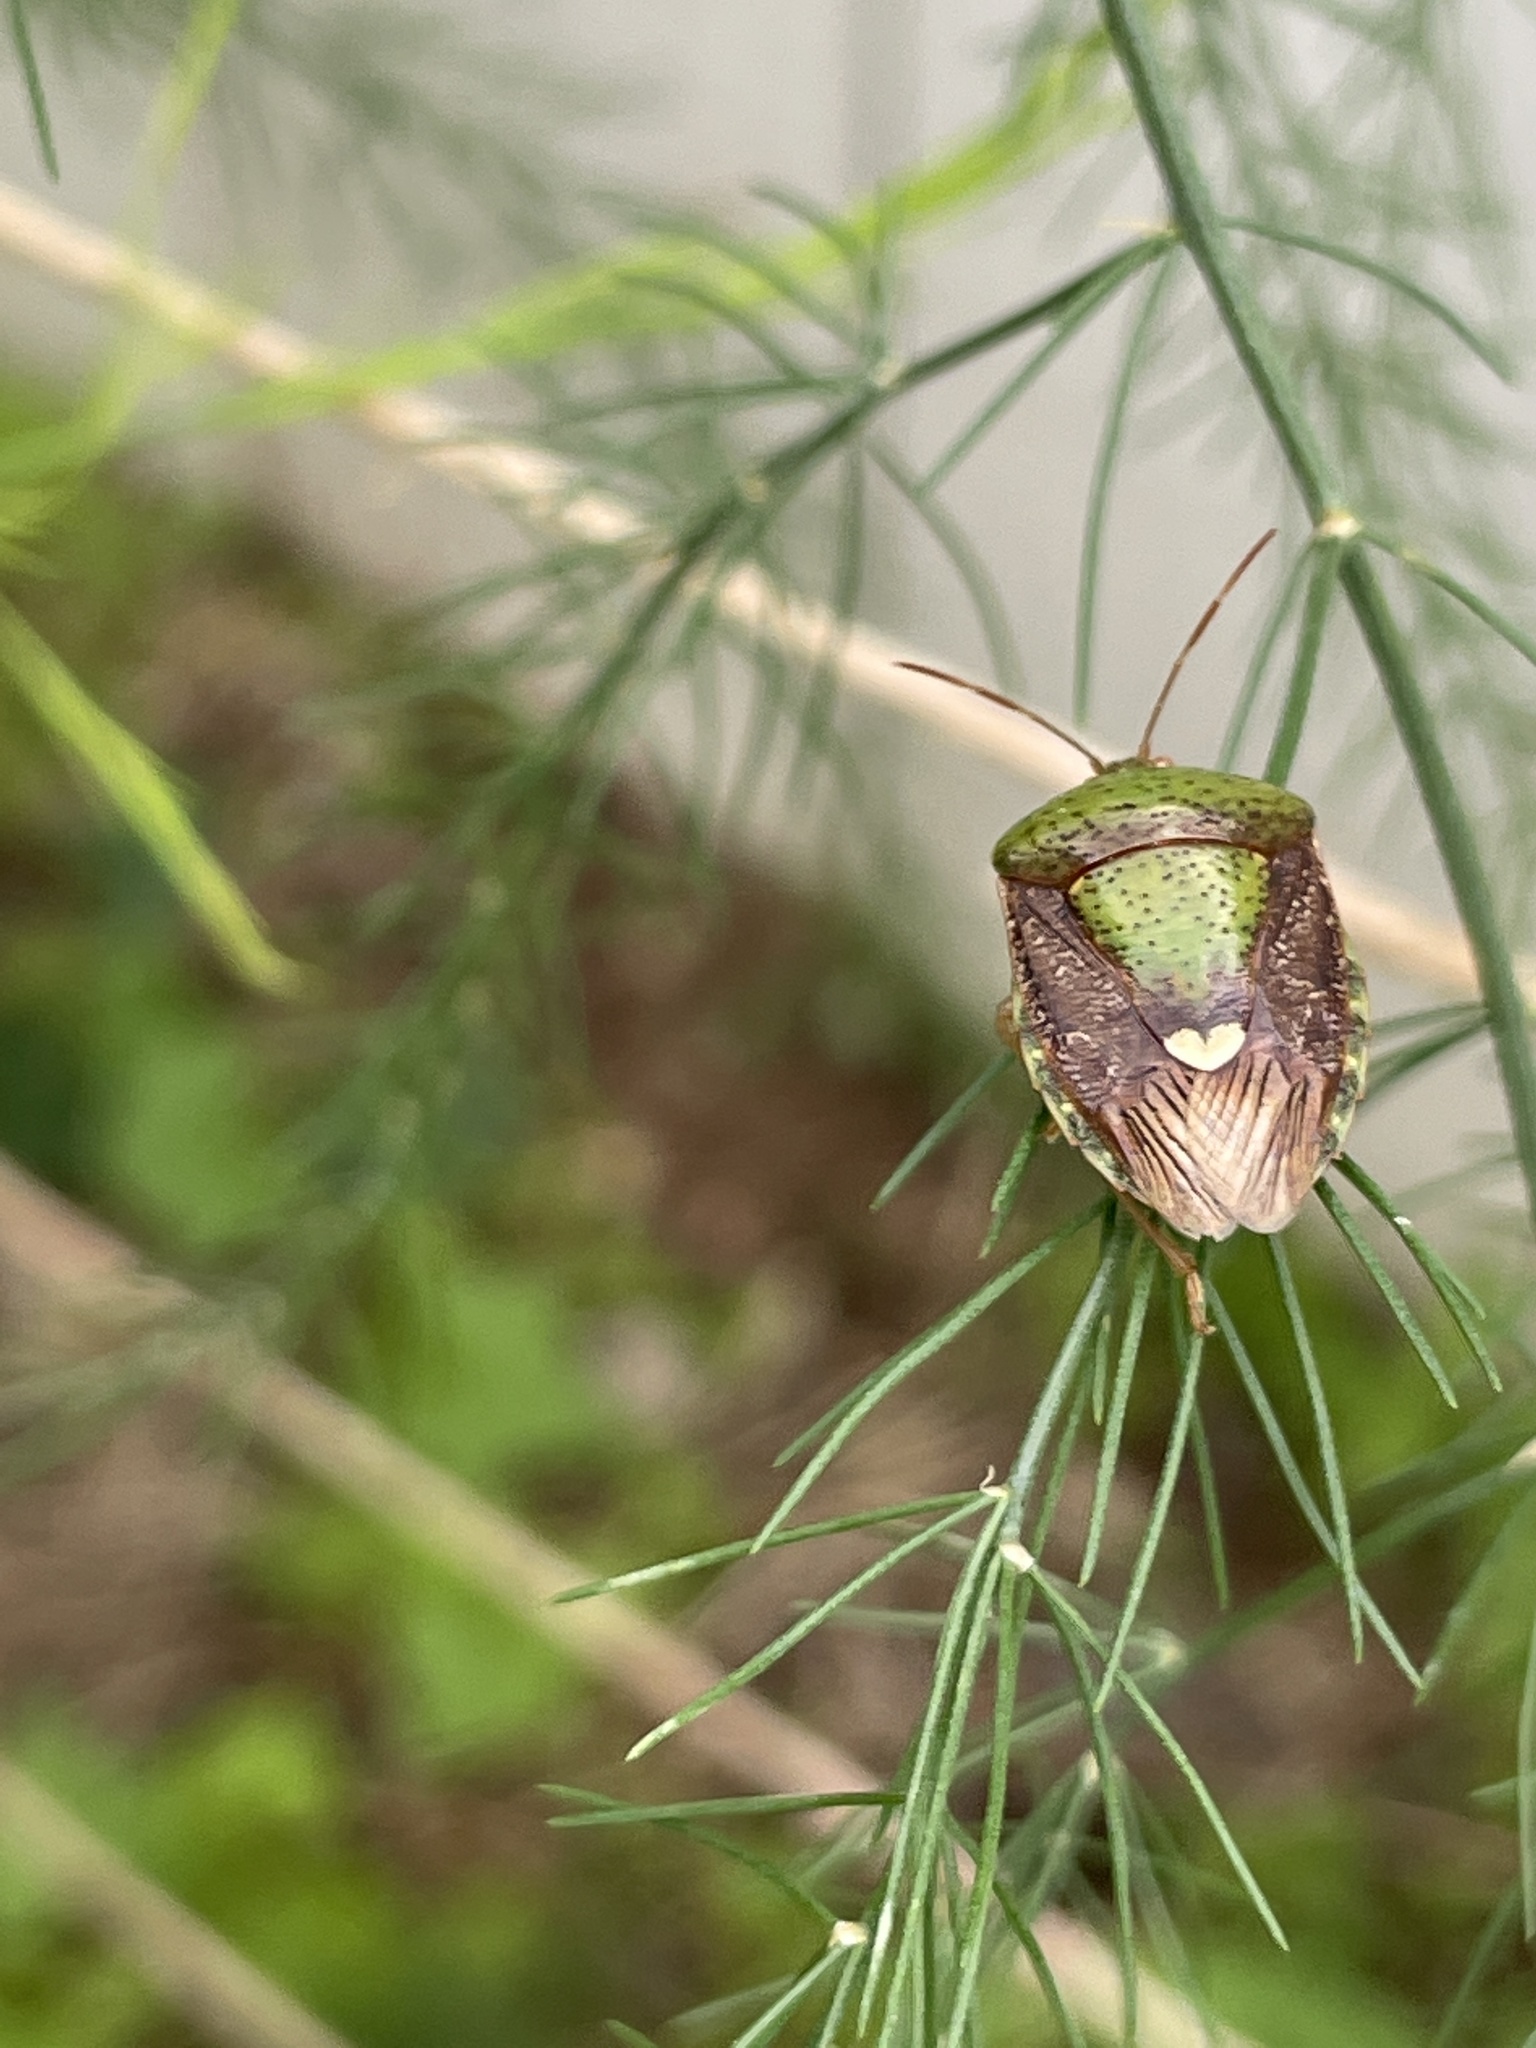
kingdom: Animalia
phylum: Arthropoda
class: Insecta
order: Hemiptera
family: Pentatomidae
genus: Edessa
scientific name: Edessa bifida
